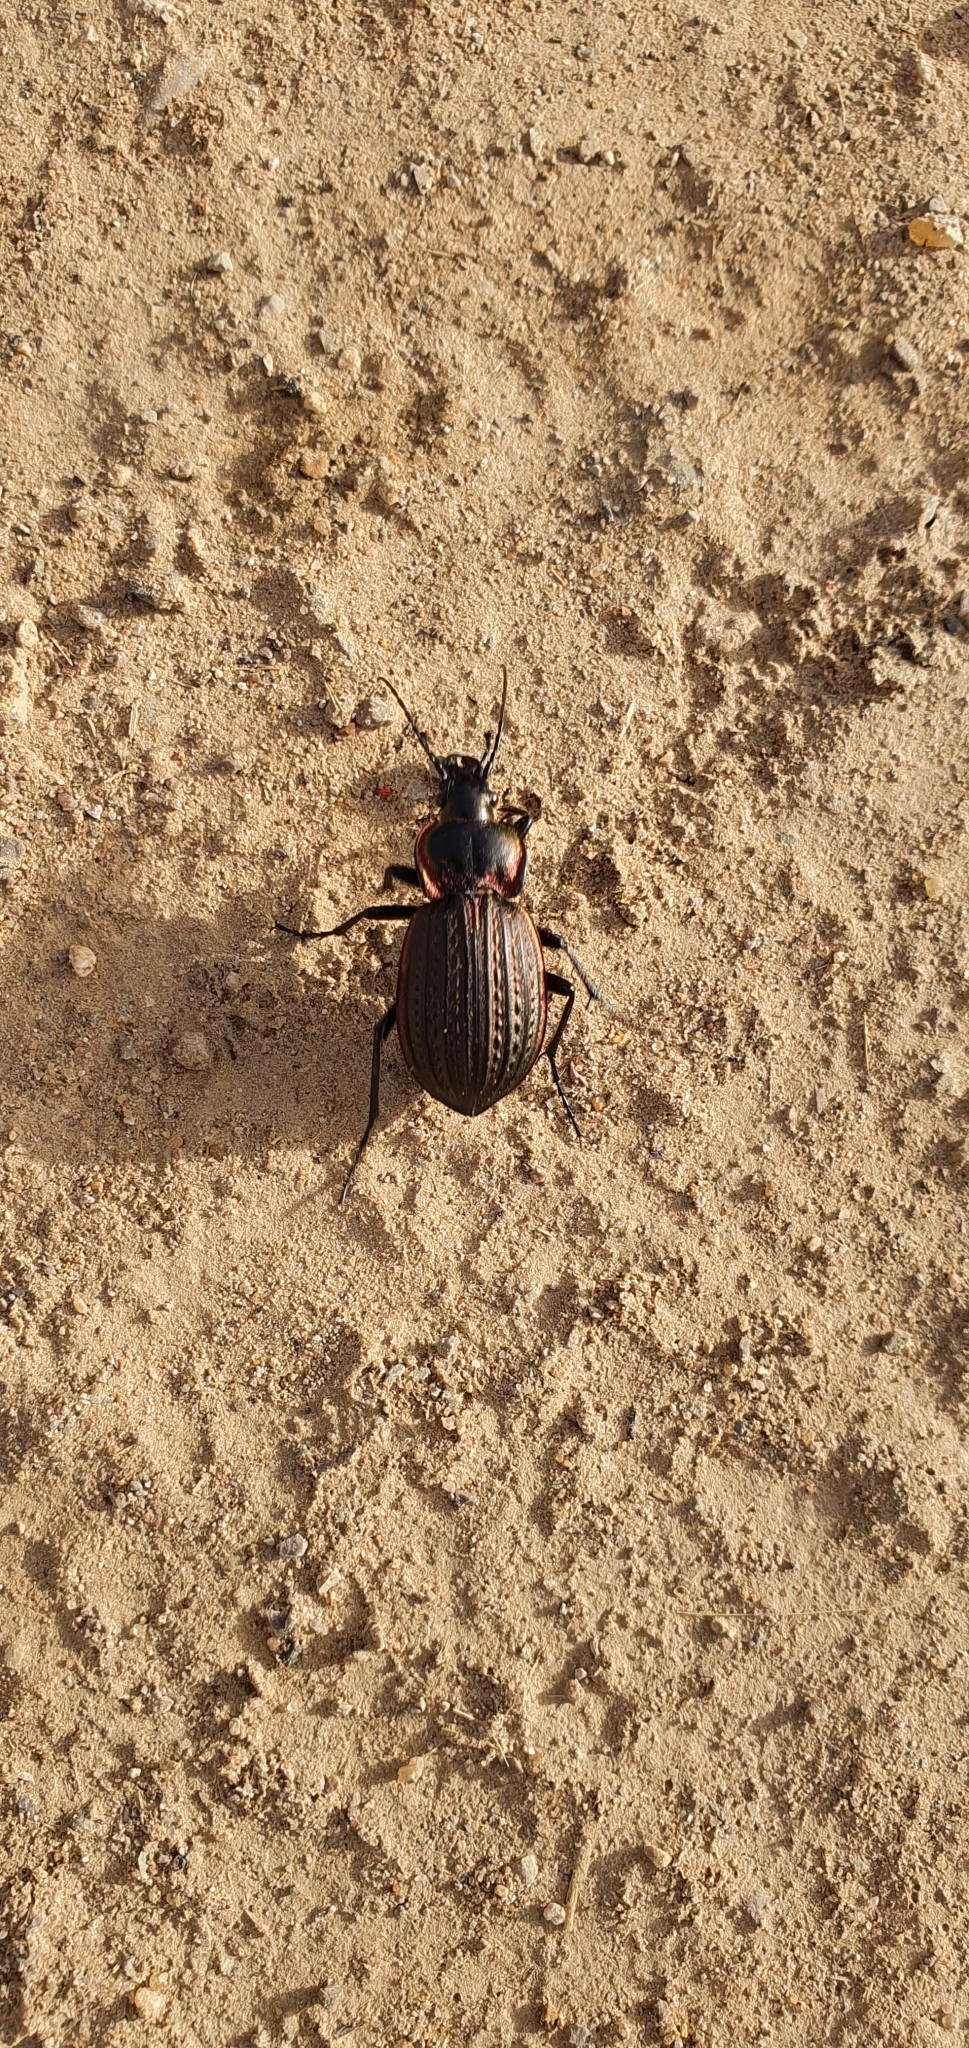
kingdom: Animalia
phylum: Arthropoda
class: Insecta
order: Coleoptera
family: Carabidae
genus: Carabus
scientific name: Carabus faminii
